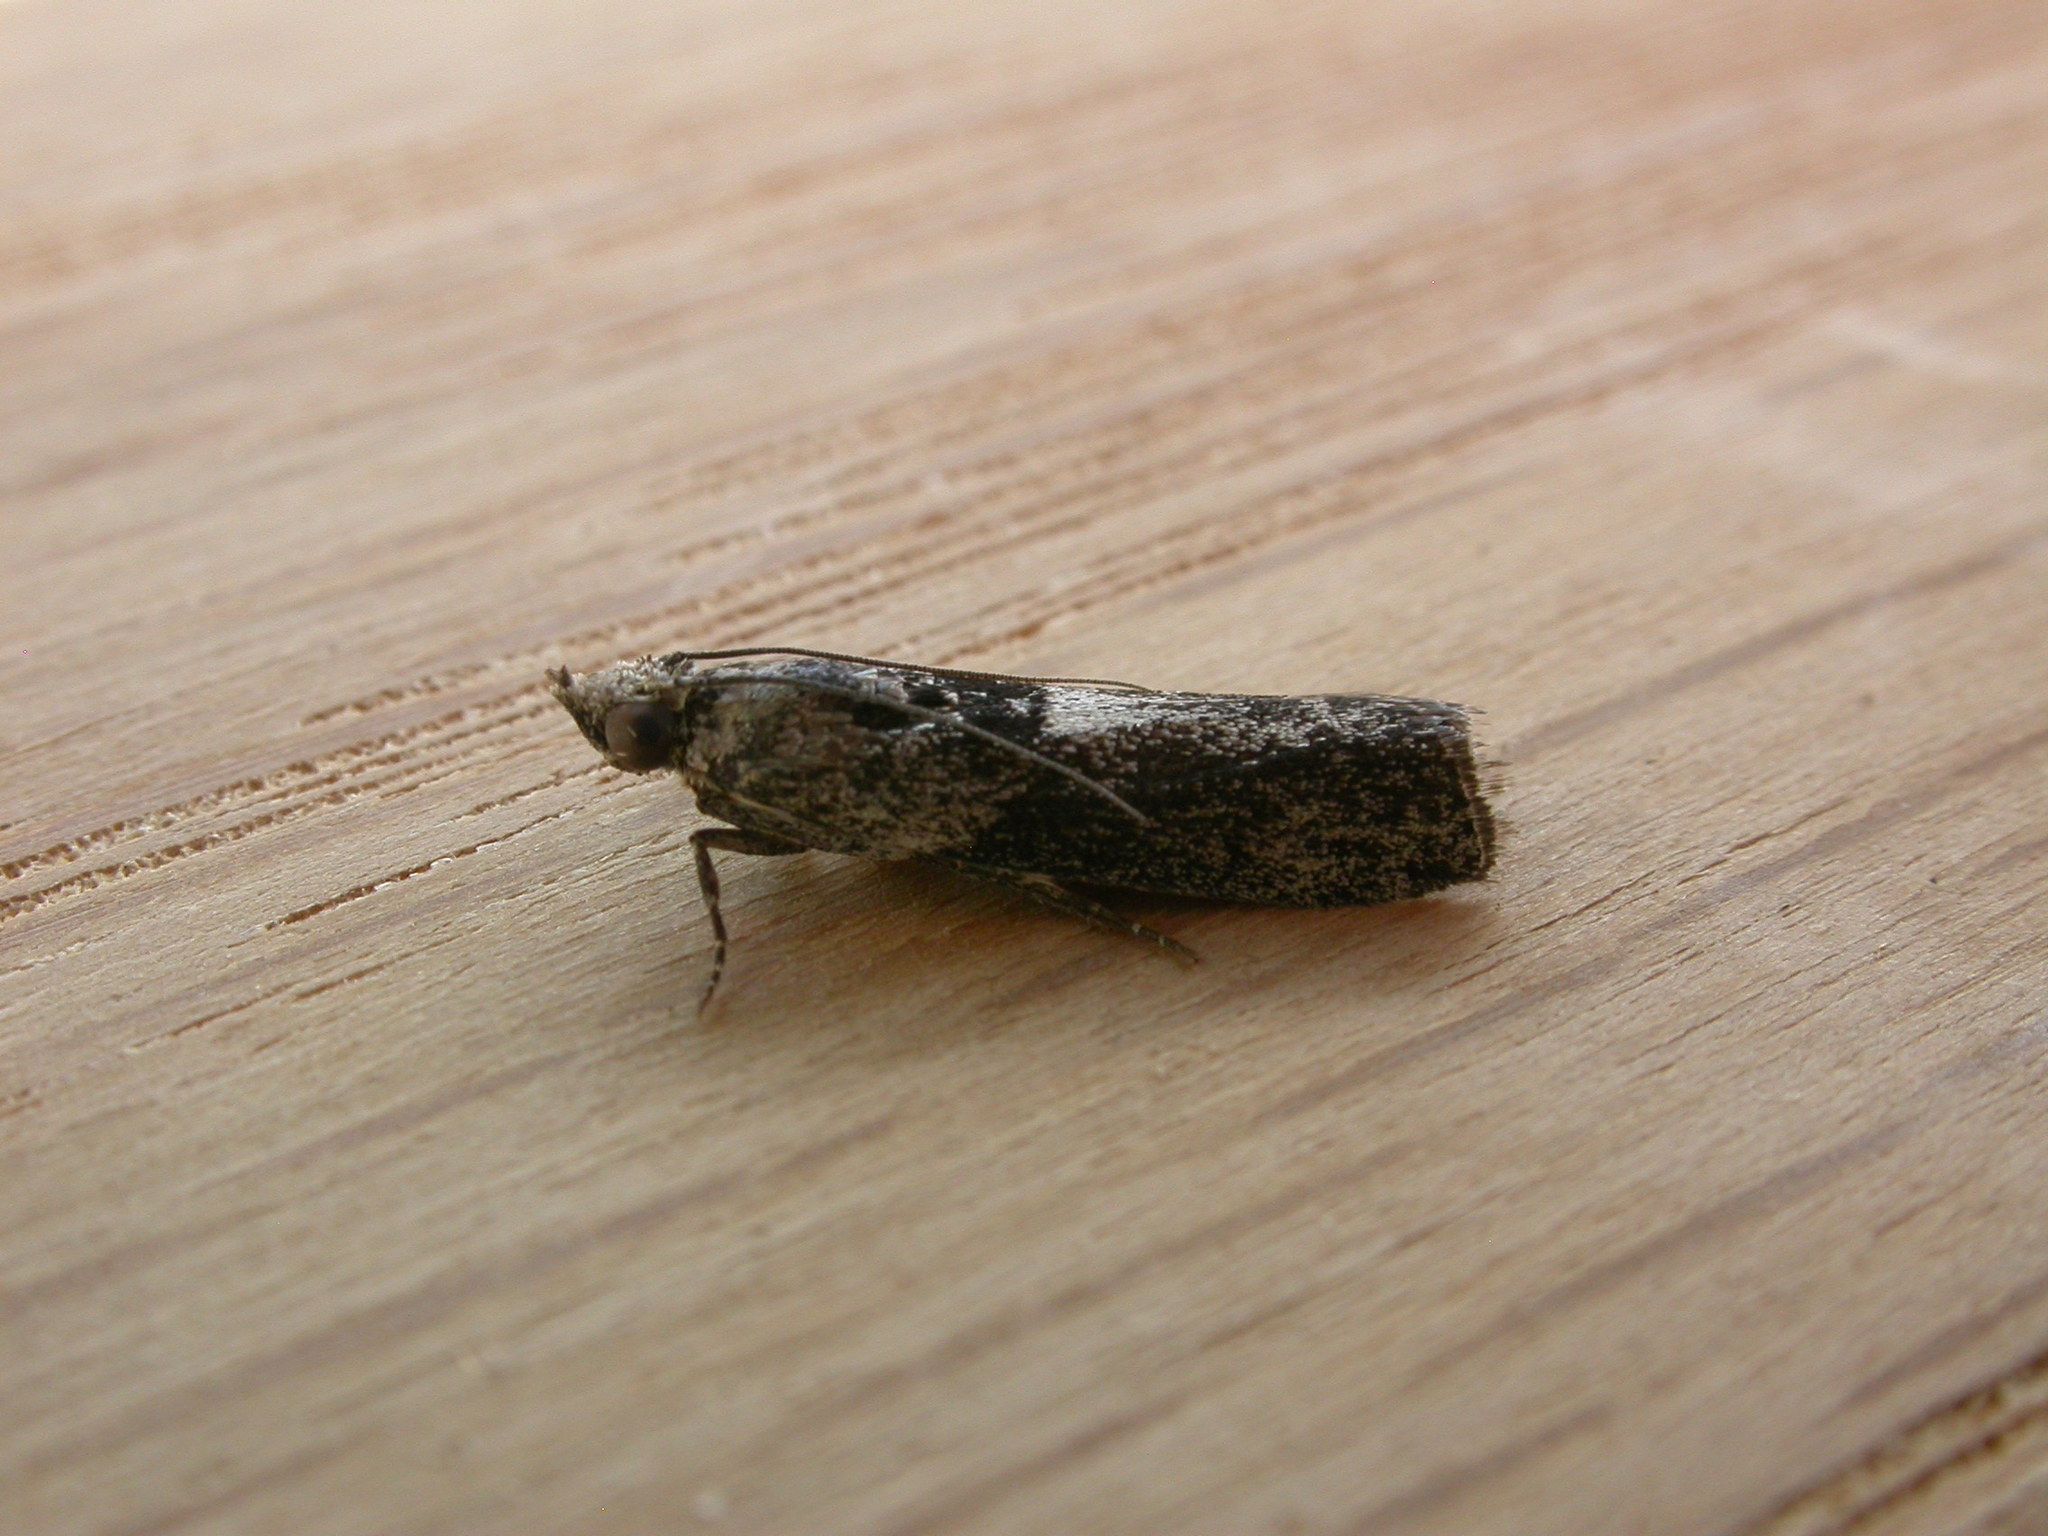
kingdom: Animalia
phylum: Arthropoda
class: Insecta
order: Lepidoptera
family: Pyralidae
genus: Sciota
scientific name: Sciota
